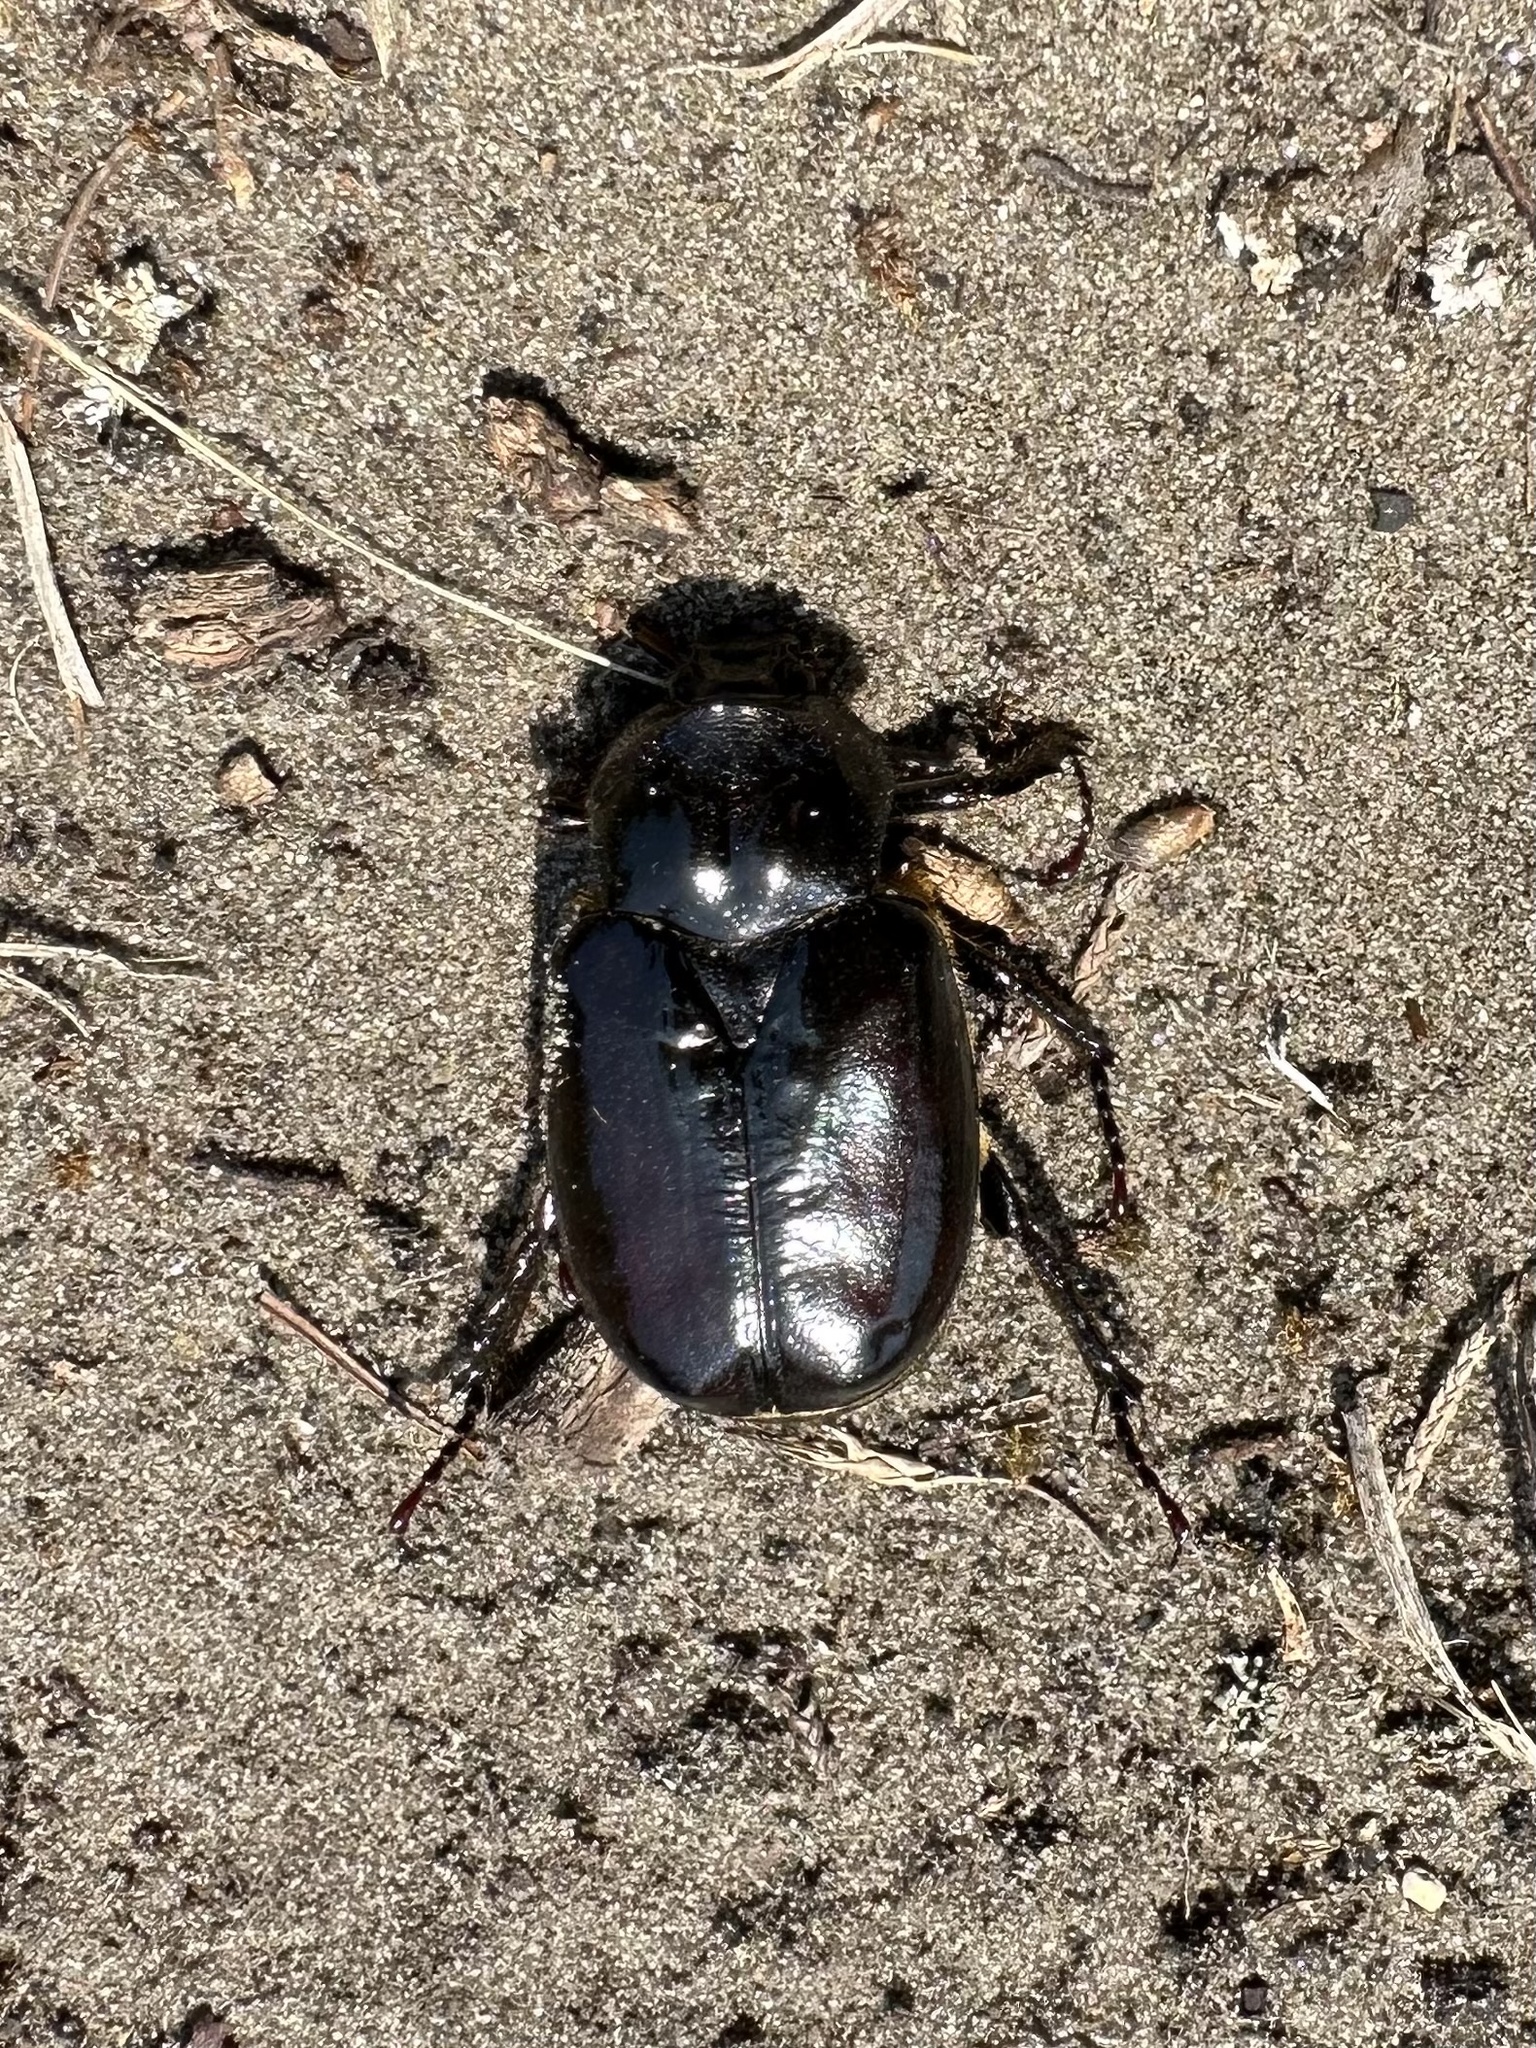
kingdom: Animalia
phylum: Arthropoda
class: Insecta
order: Coleoptera
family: Scarabaeidae
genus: Osmoderma
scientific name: Osmoderma eremicola
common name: Hermit flower beetle
